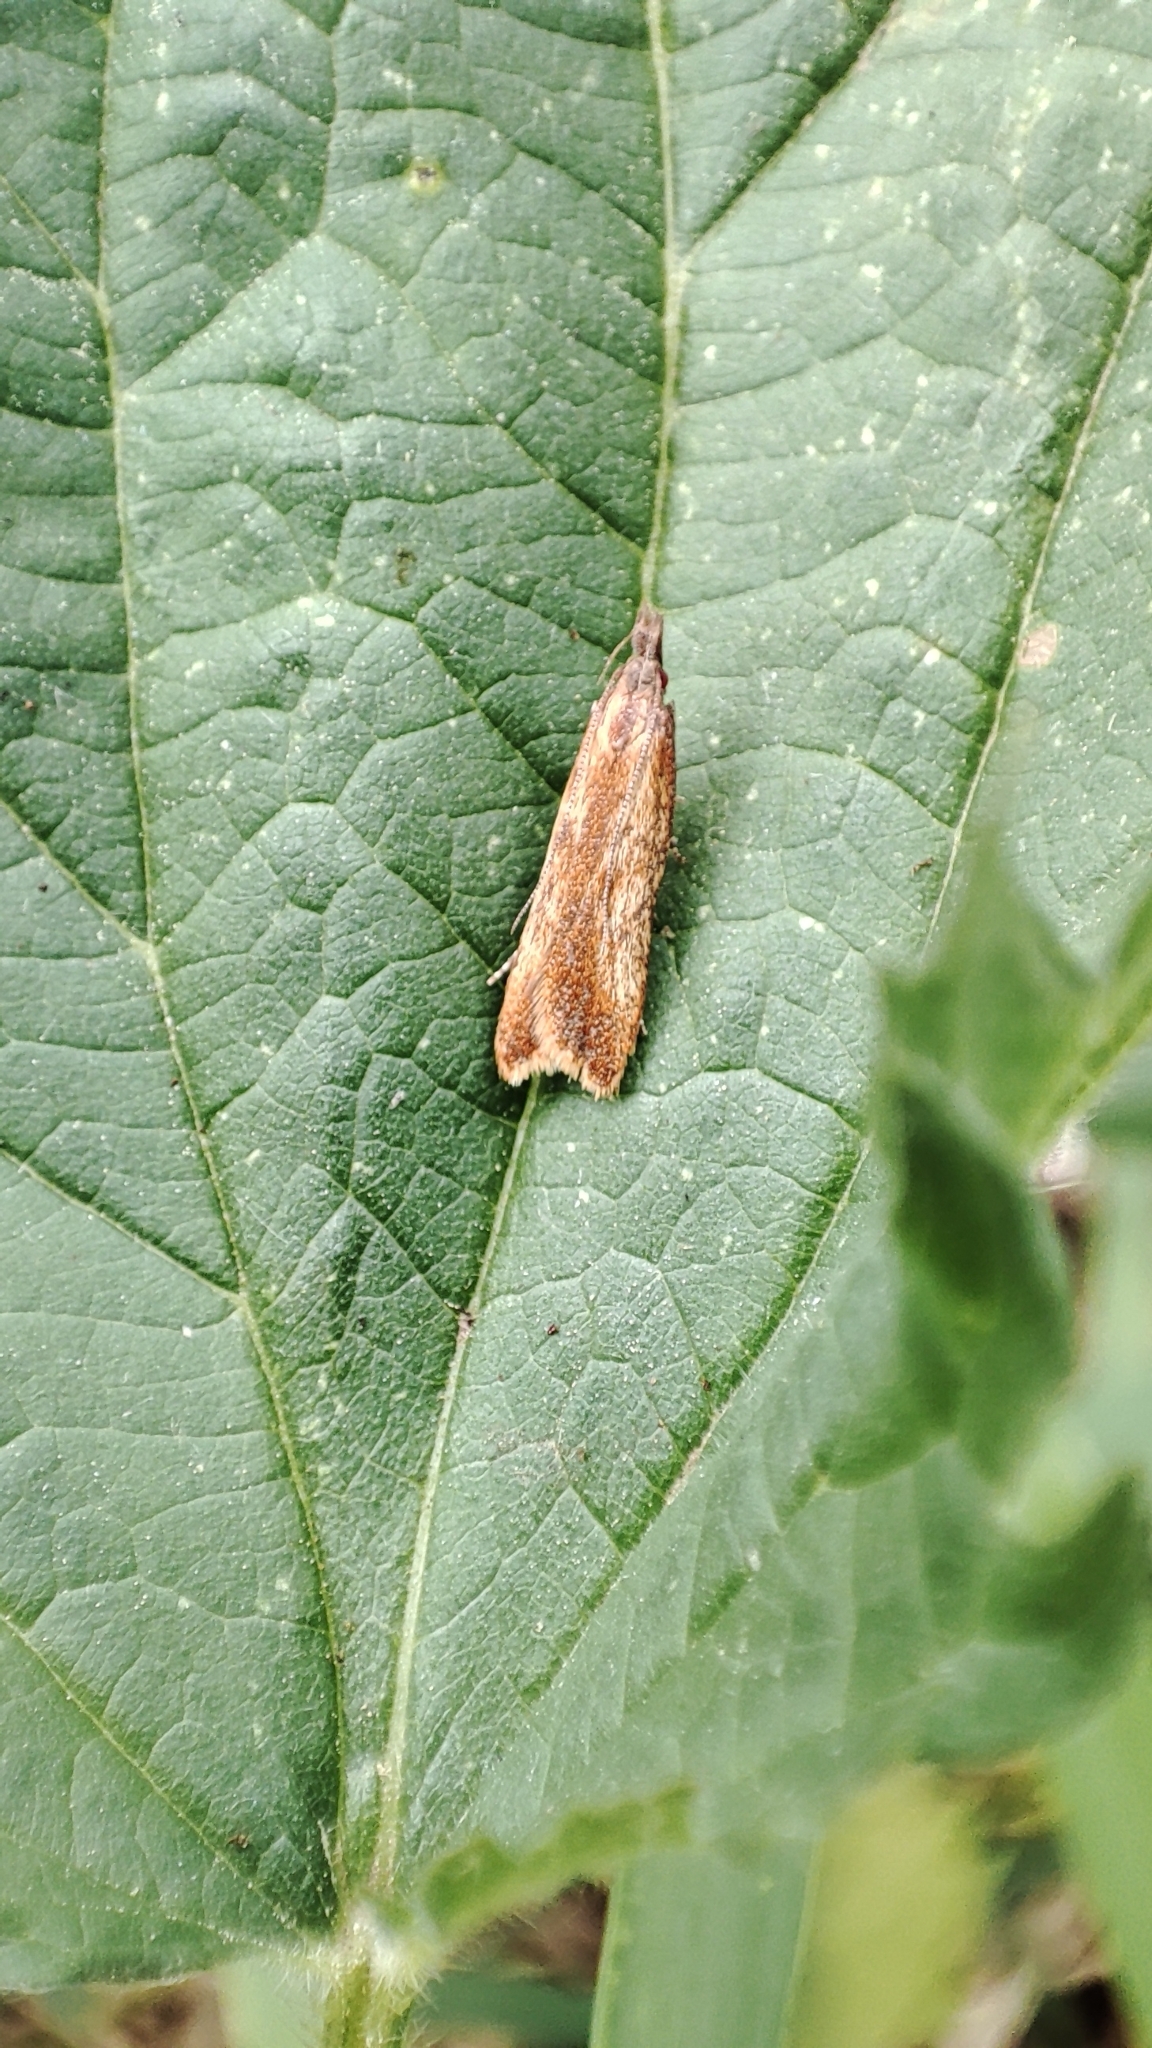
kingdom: Animalia
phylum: Arthropoda
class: Insecta
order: Lepidoptera
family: Gelechiidae
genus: Dichomeris
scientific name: Dichomeris ustalella
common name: Worcester crest
